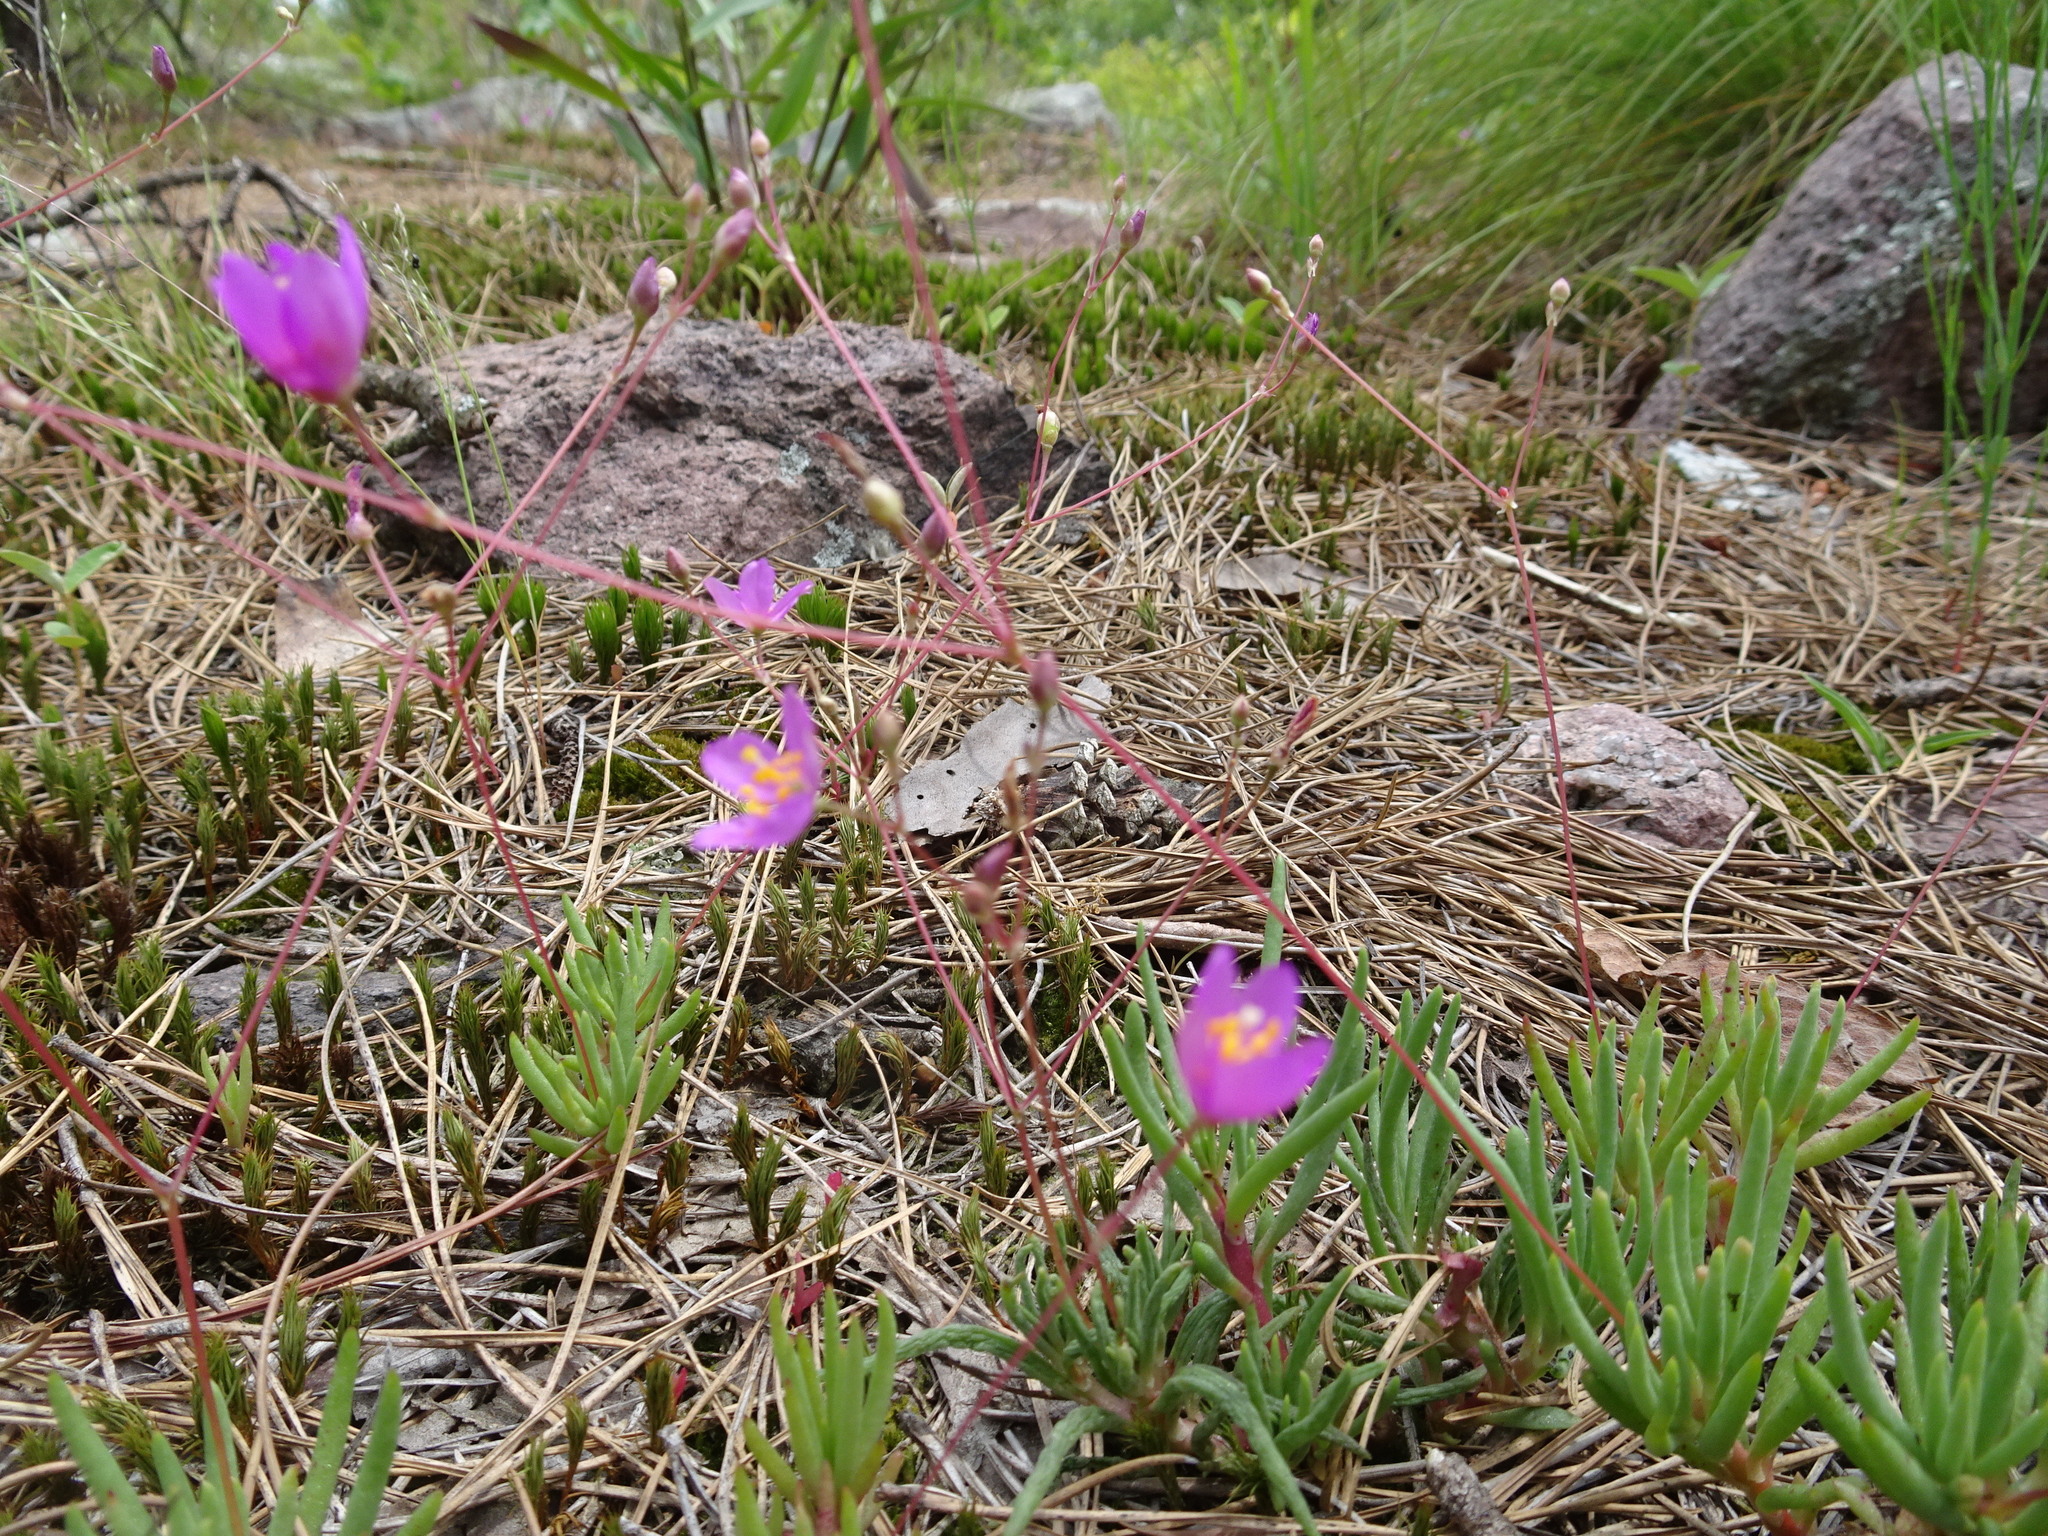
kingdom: Plantae
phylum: Tracheophyta
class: Magnoliopsida
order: Caryophyllales
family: Montiaceae
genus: Phemeranthus
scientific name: Phemeranthus calycinus
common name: Largeflower fameflower
